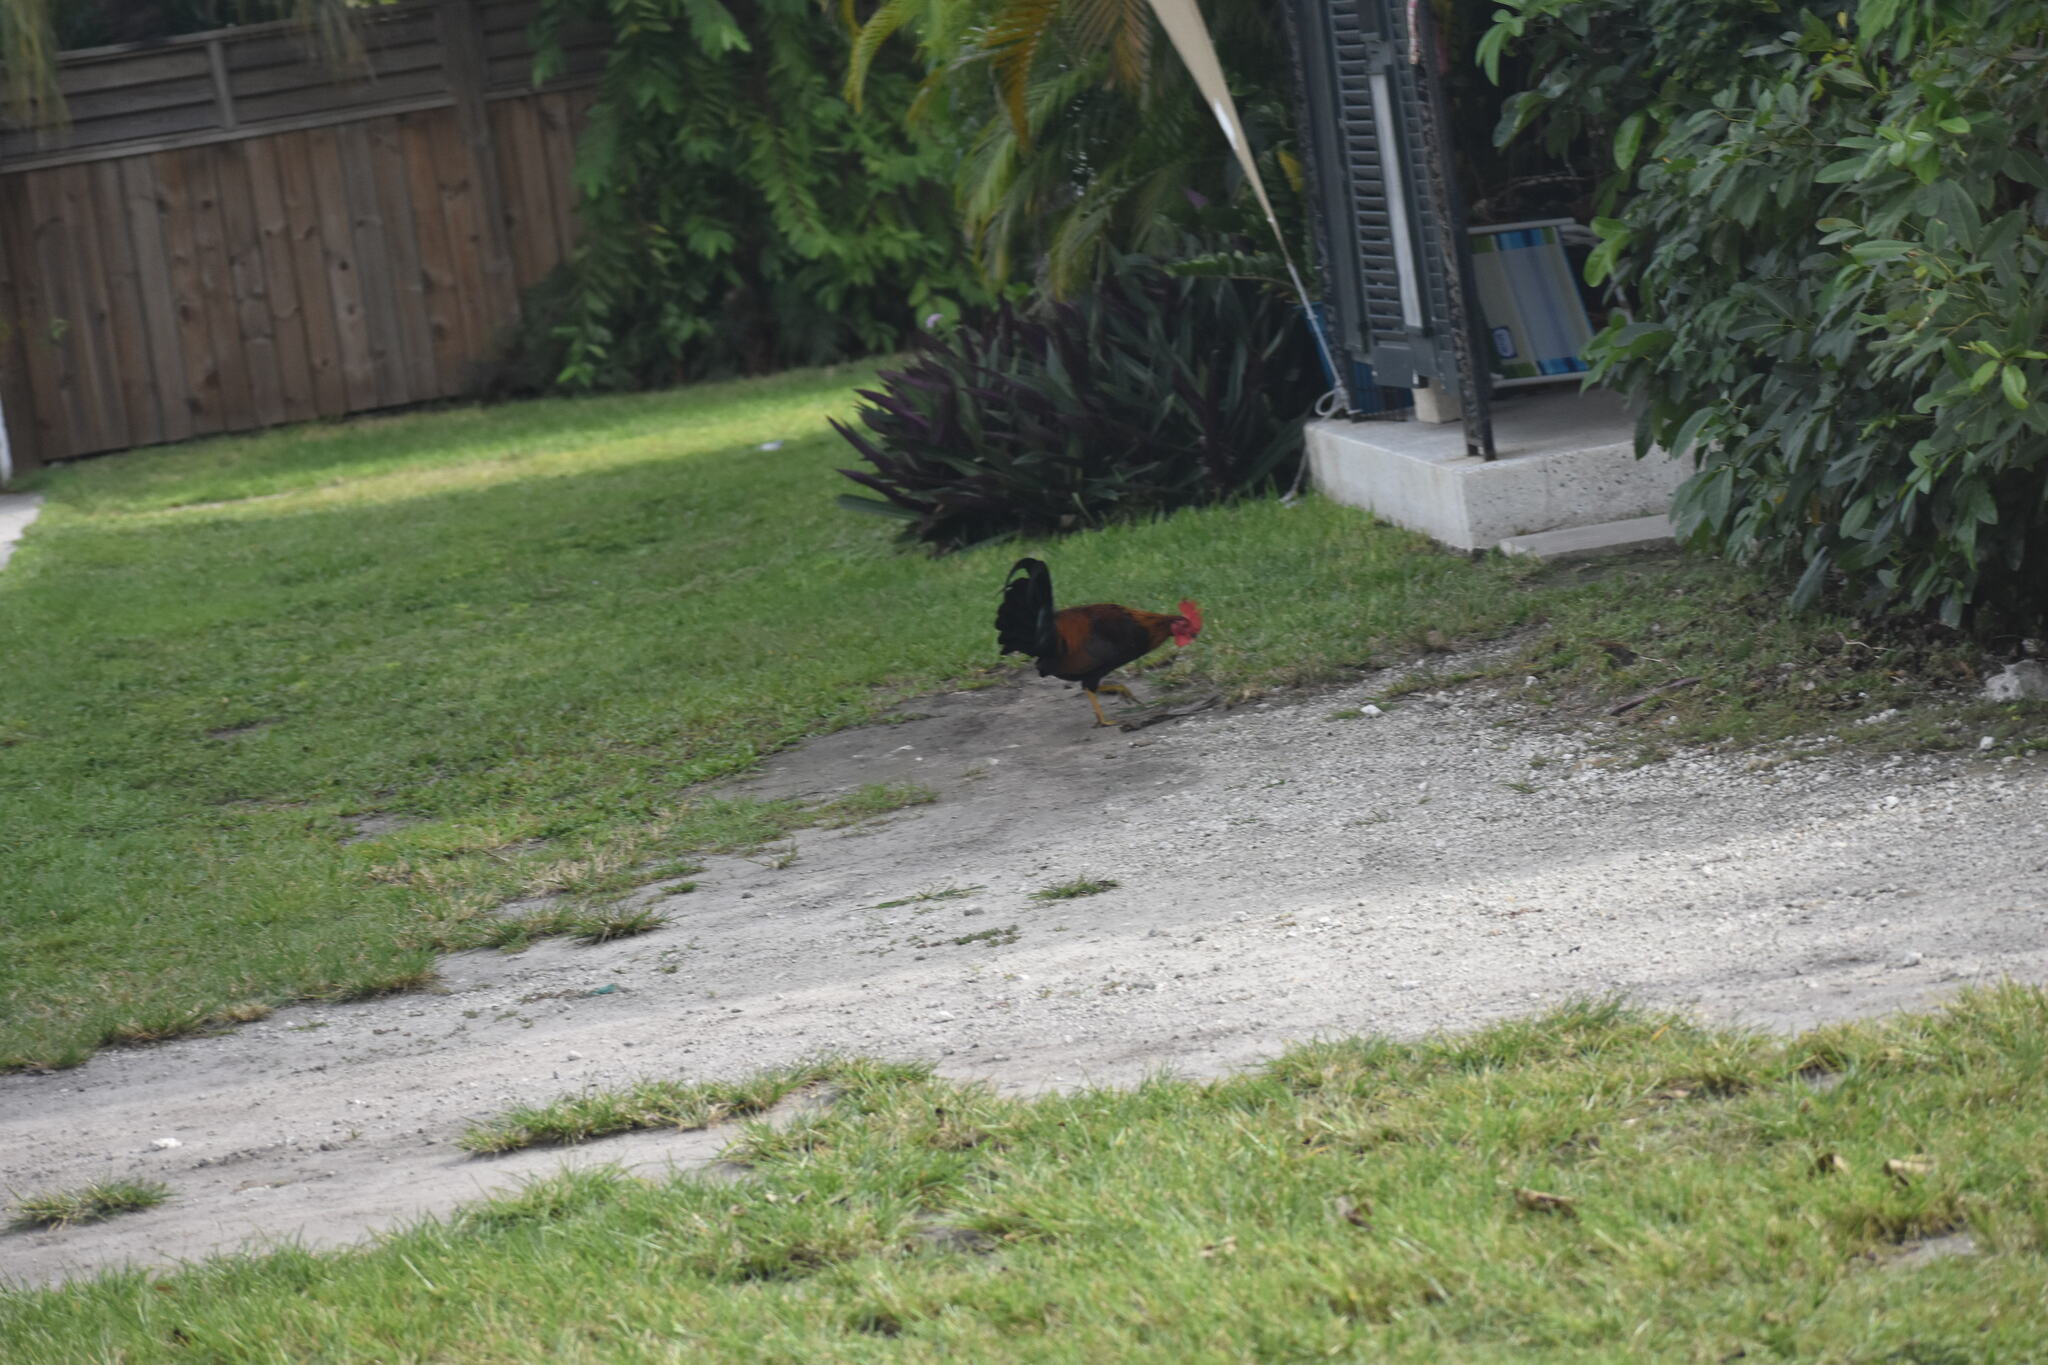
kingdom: Animalia
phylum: Chordata
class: Aves
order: Galliformes
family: Phasianidae
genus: Gallus
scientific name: Gallus gallus
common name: Red junglefowl
